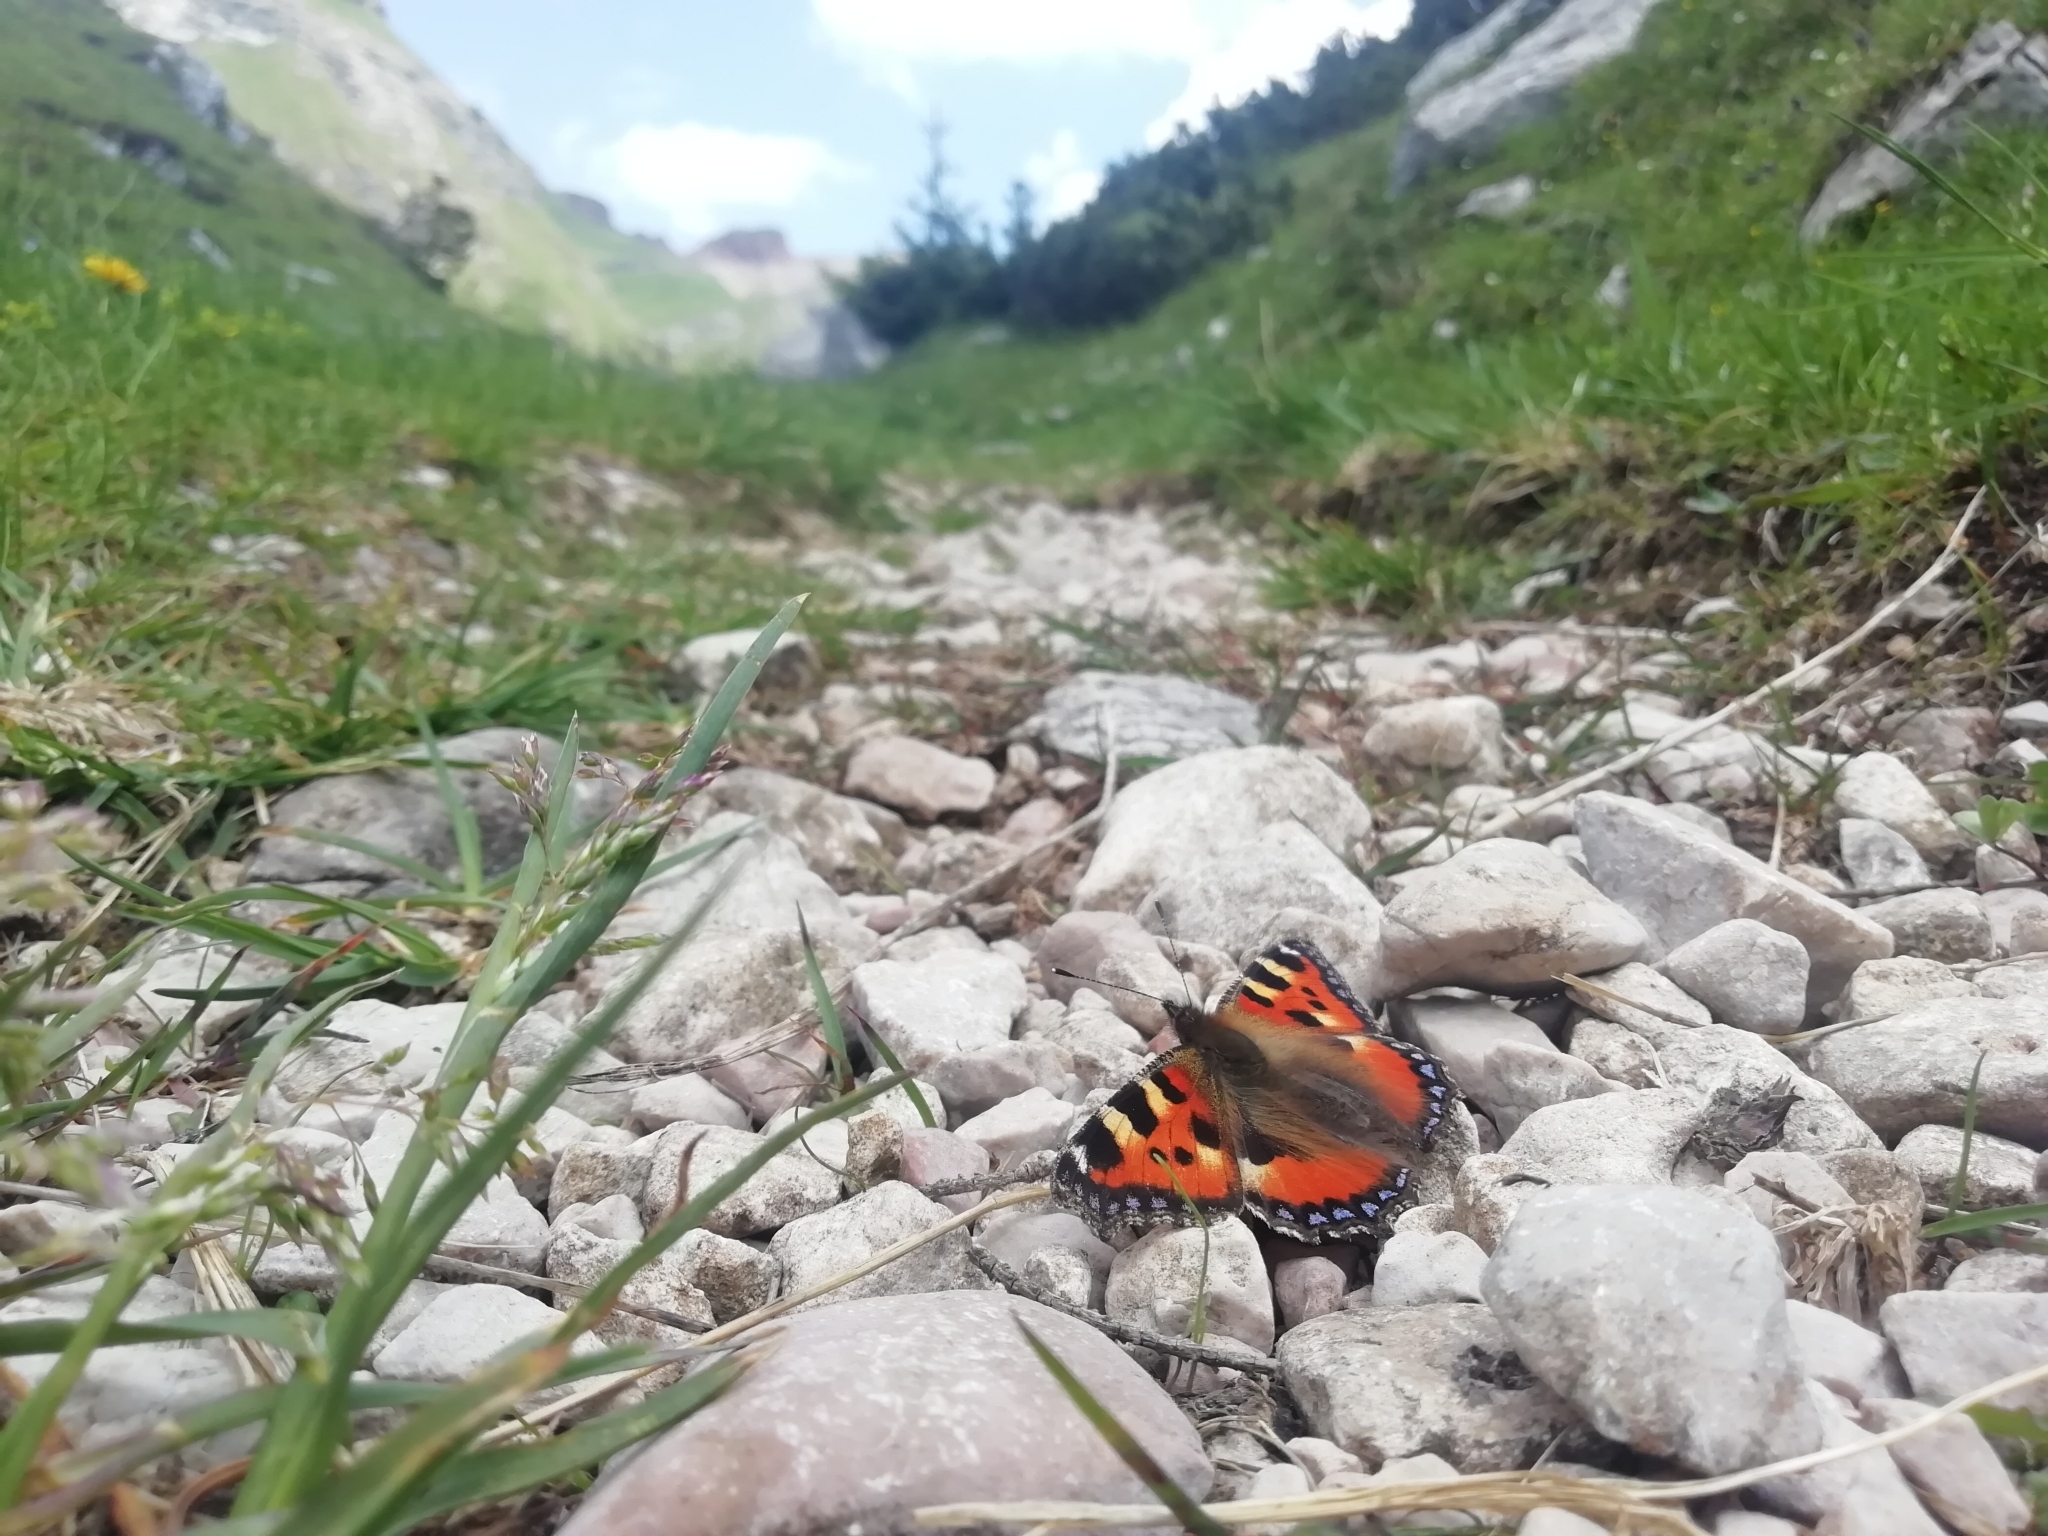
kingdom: Animalia
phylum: Arthropoda
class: Insecta
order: Lepidoptera
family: Nymphalidae
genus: Aglais
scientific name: Aglais urticae
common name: Small tortoiseshell
